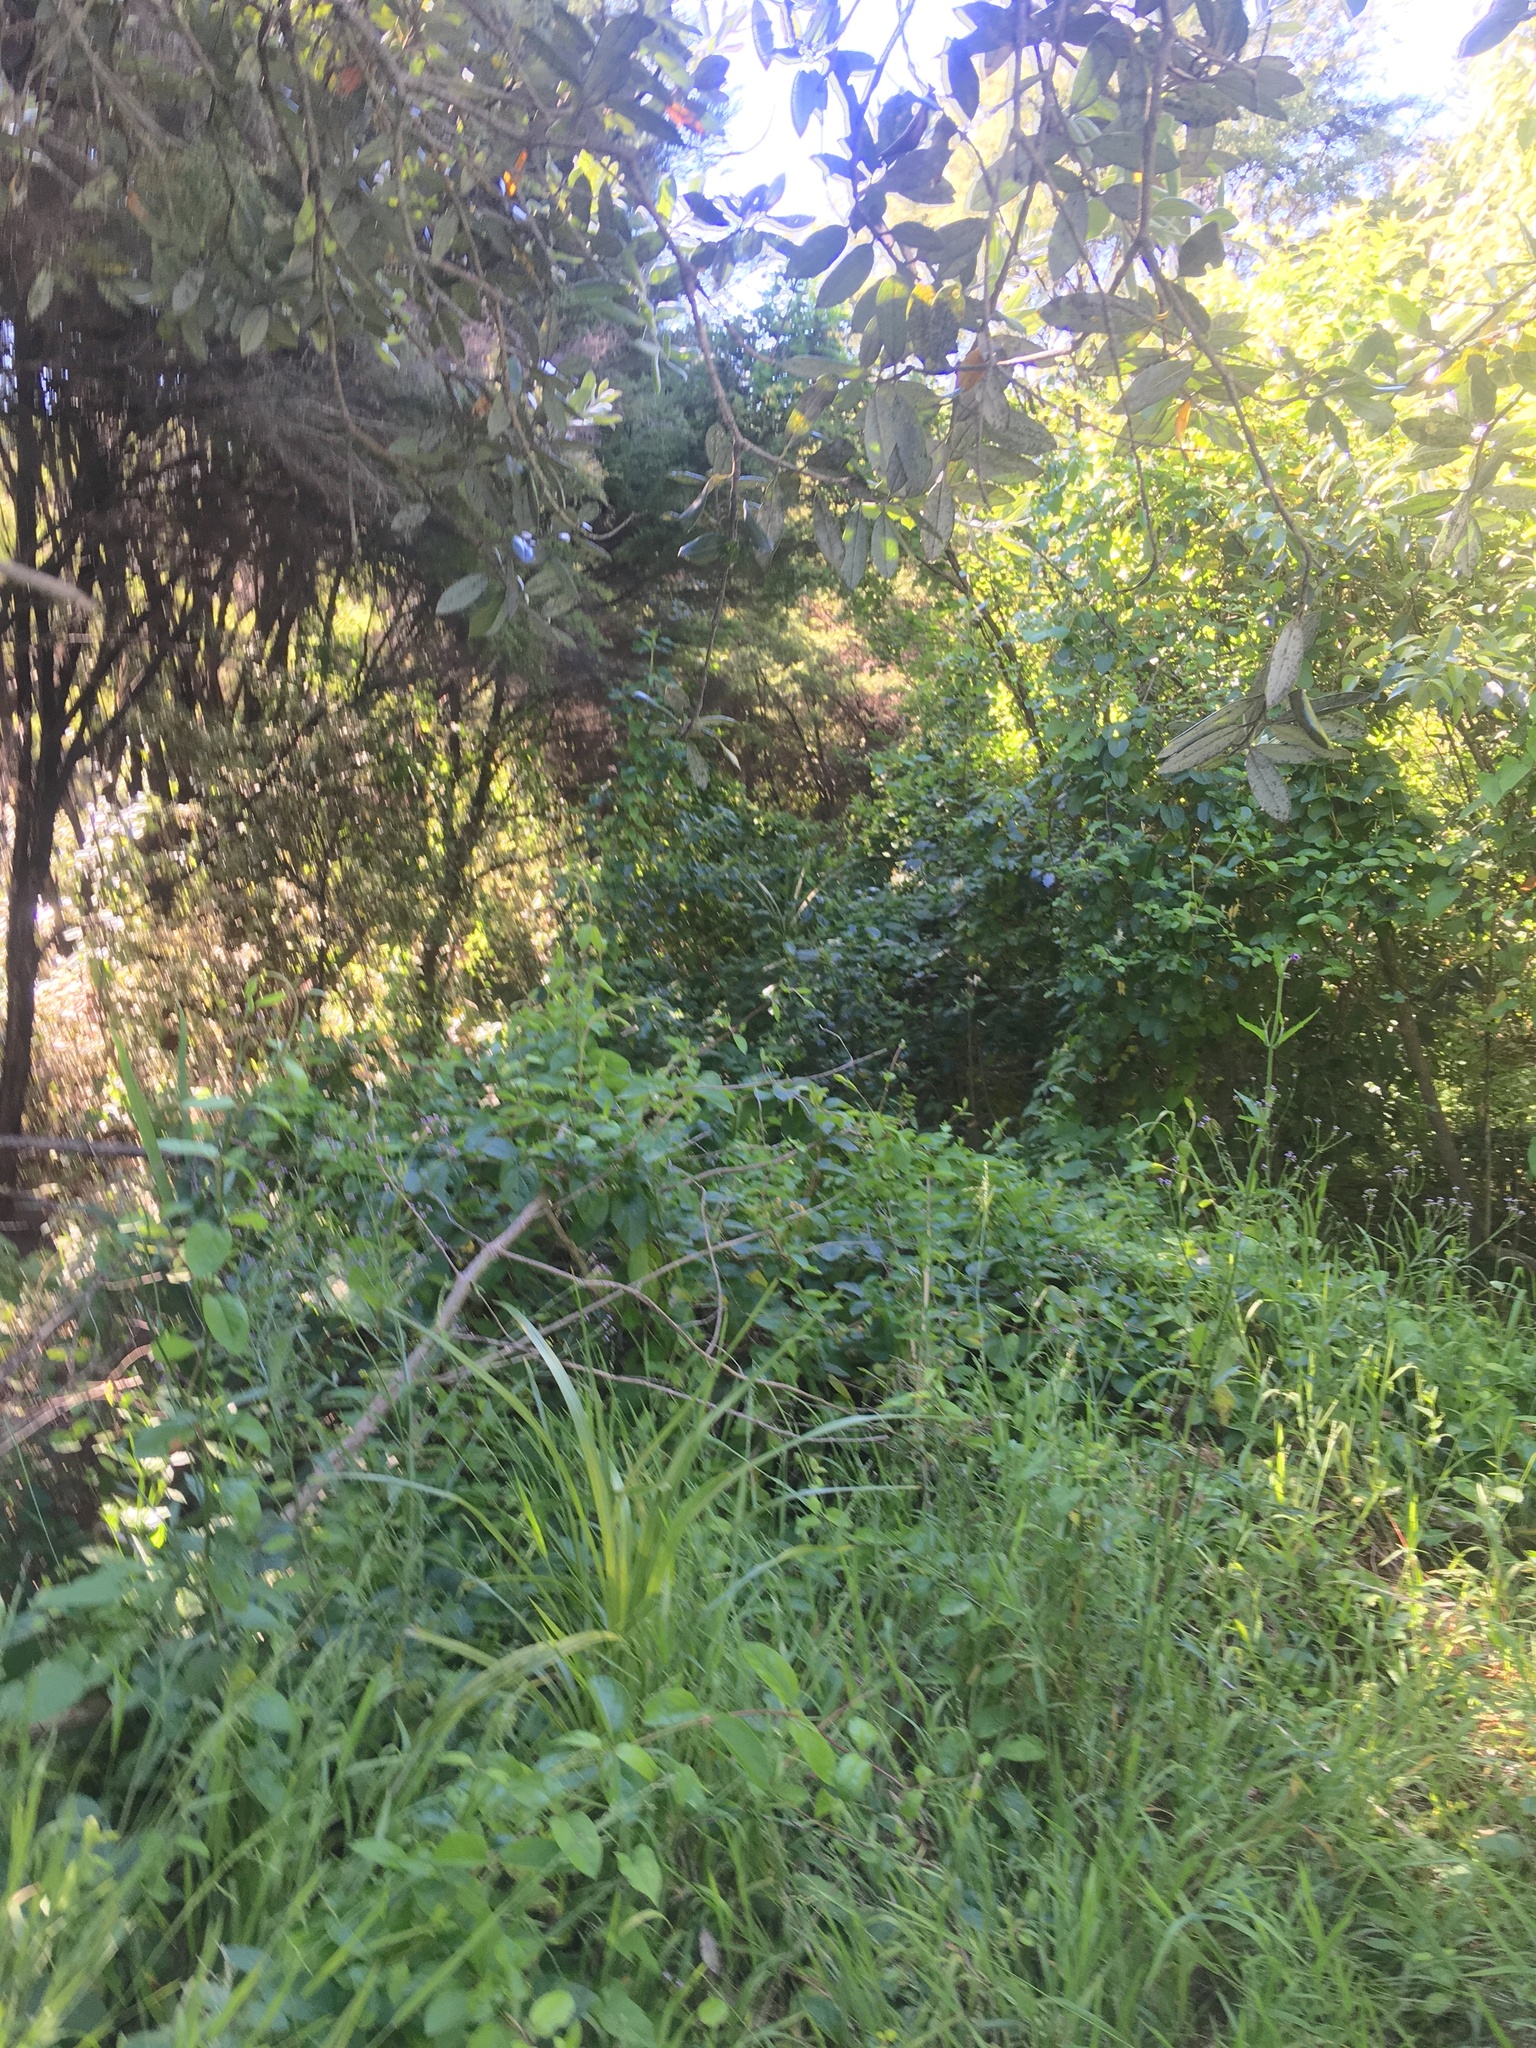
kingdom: Plantae
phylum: Tracheophyta
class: Magnoliopsida
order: Lamiales
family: Verbenaceae
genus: Verbena
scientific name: Verbena incompta
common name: Purpletop vervain
